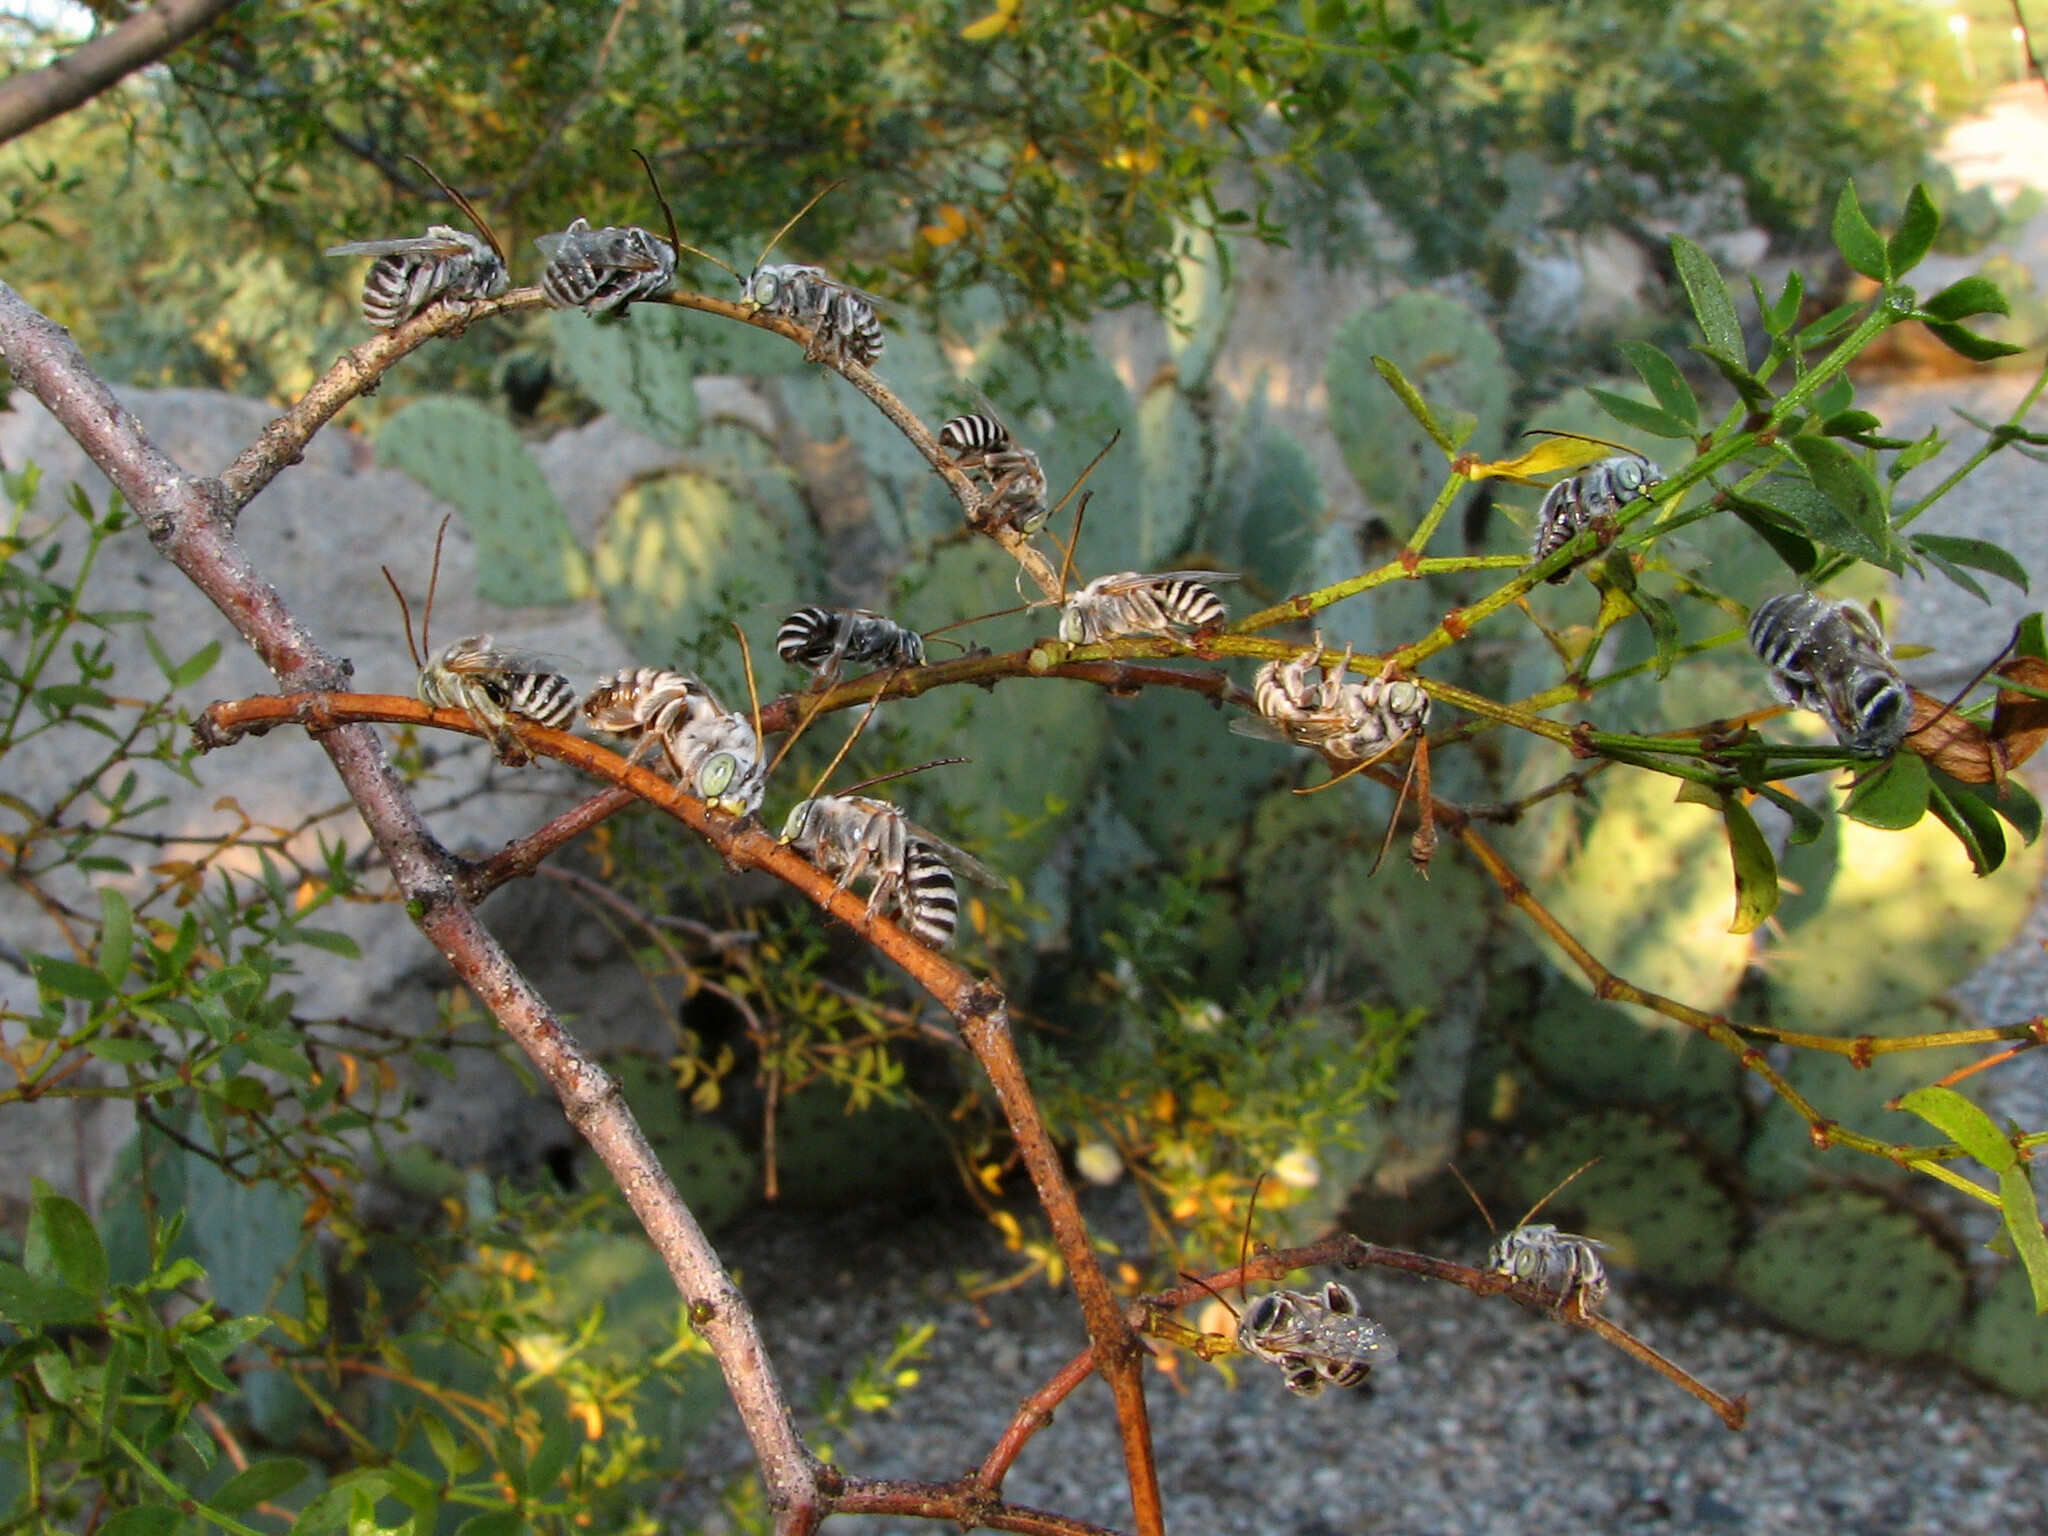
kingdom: Animalia
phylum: Arthropoda
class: Insecta
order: Hymenoptera
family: Apidae
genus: Svastra
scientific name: Svastra duplocincta
